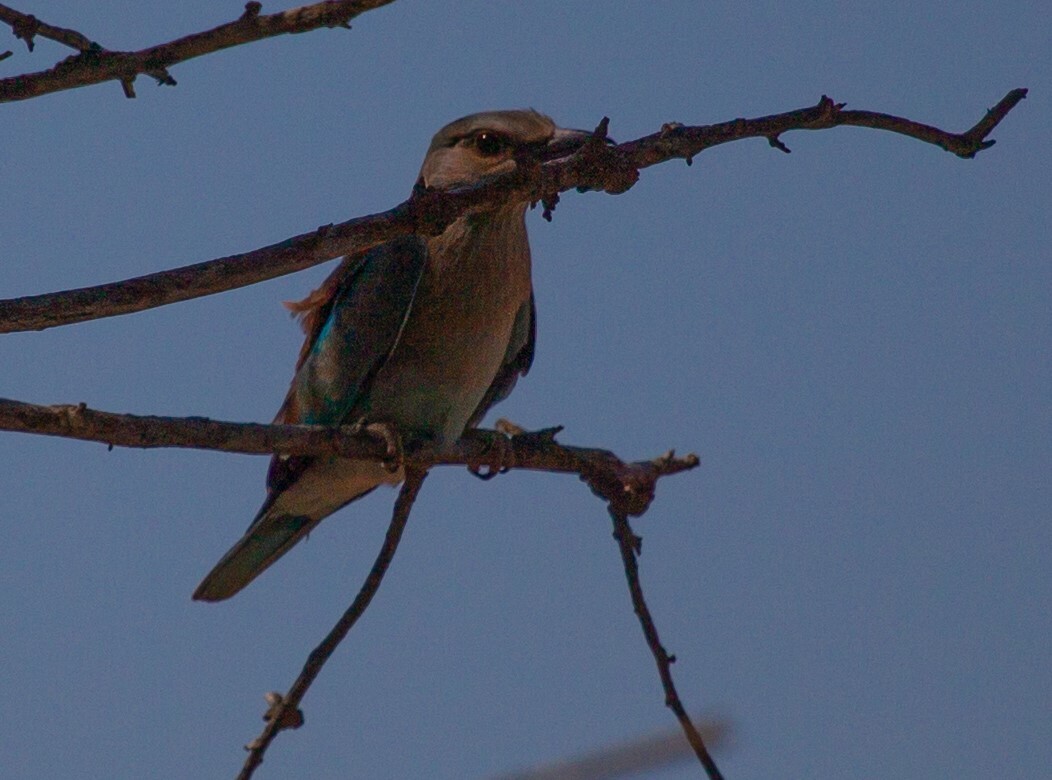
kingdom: Animalia
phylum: Chordata
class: Aves
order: Coraciiformes
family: Coraciidae
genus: Coracias
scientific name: Coracias garrulus
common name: European roller
